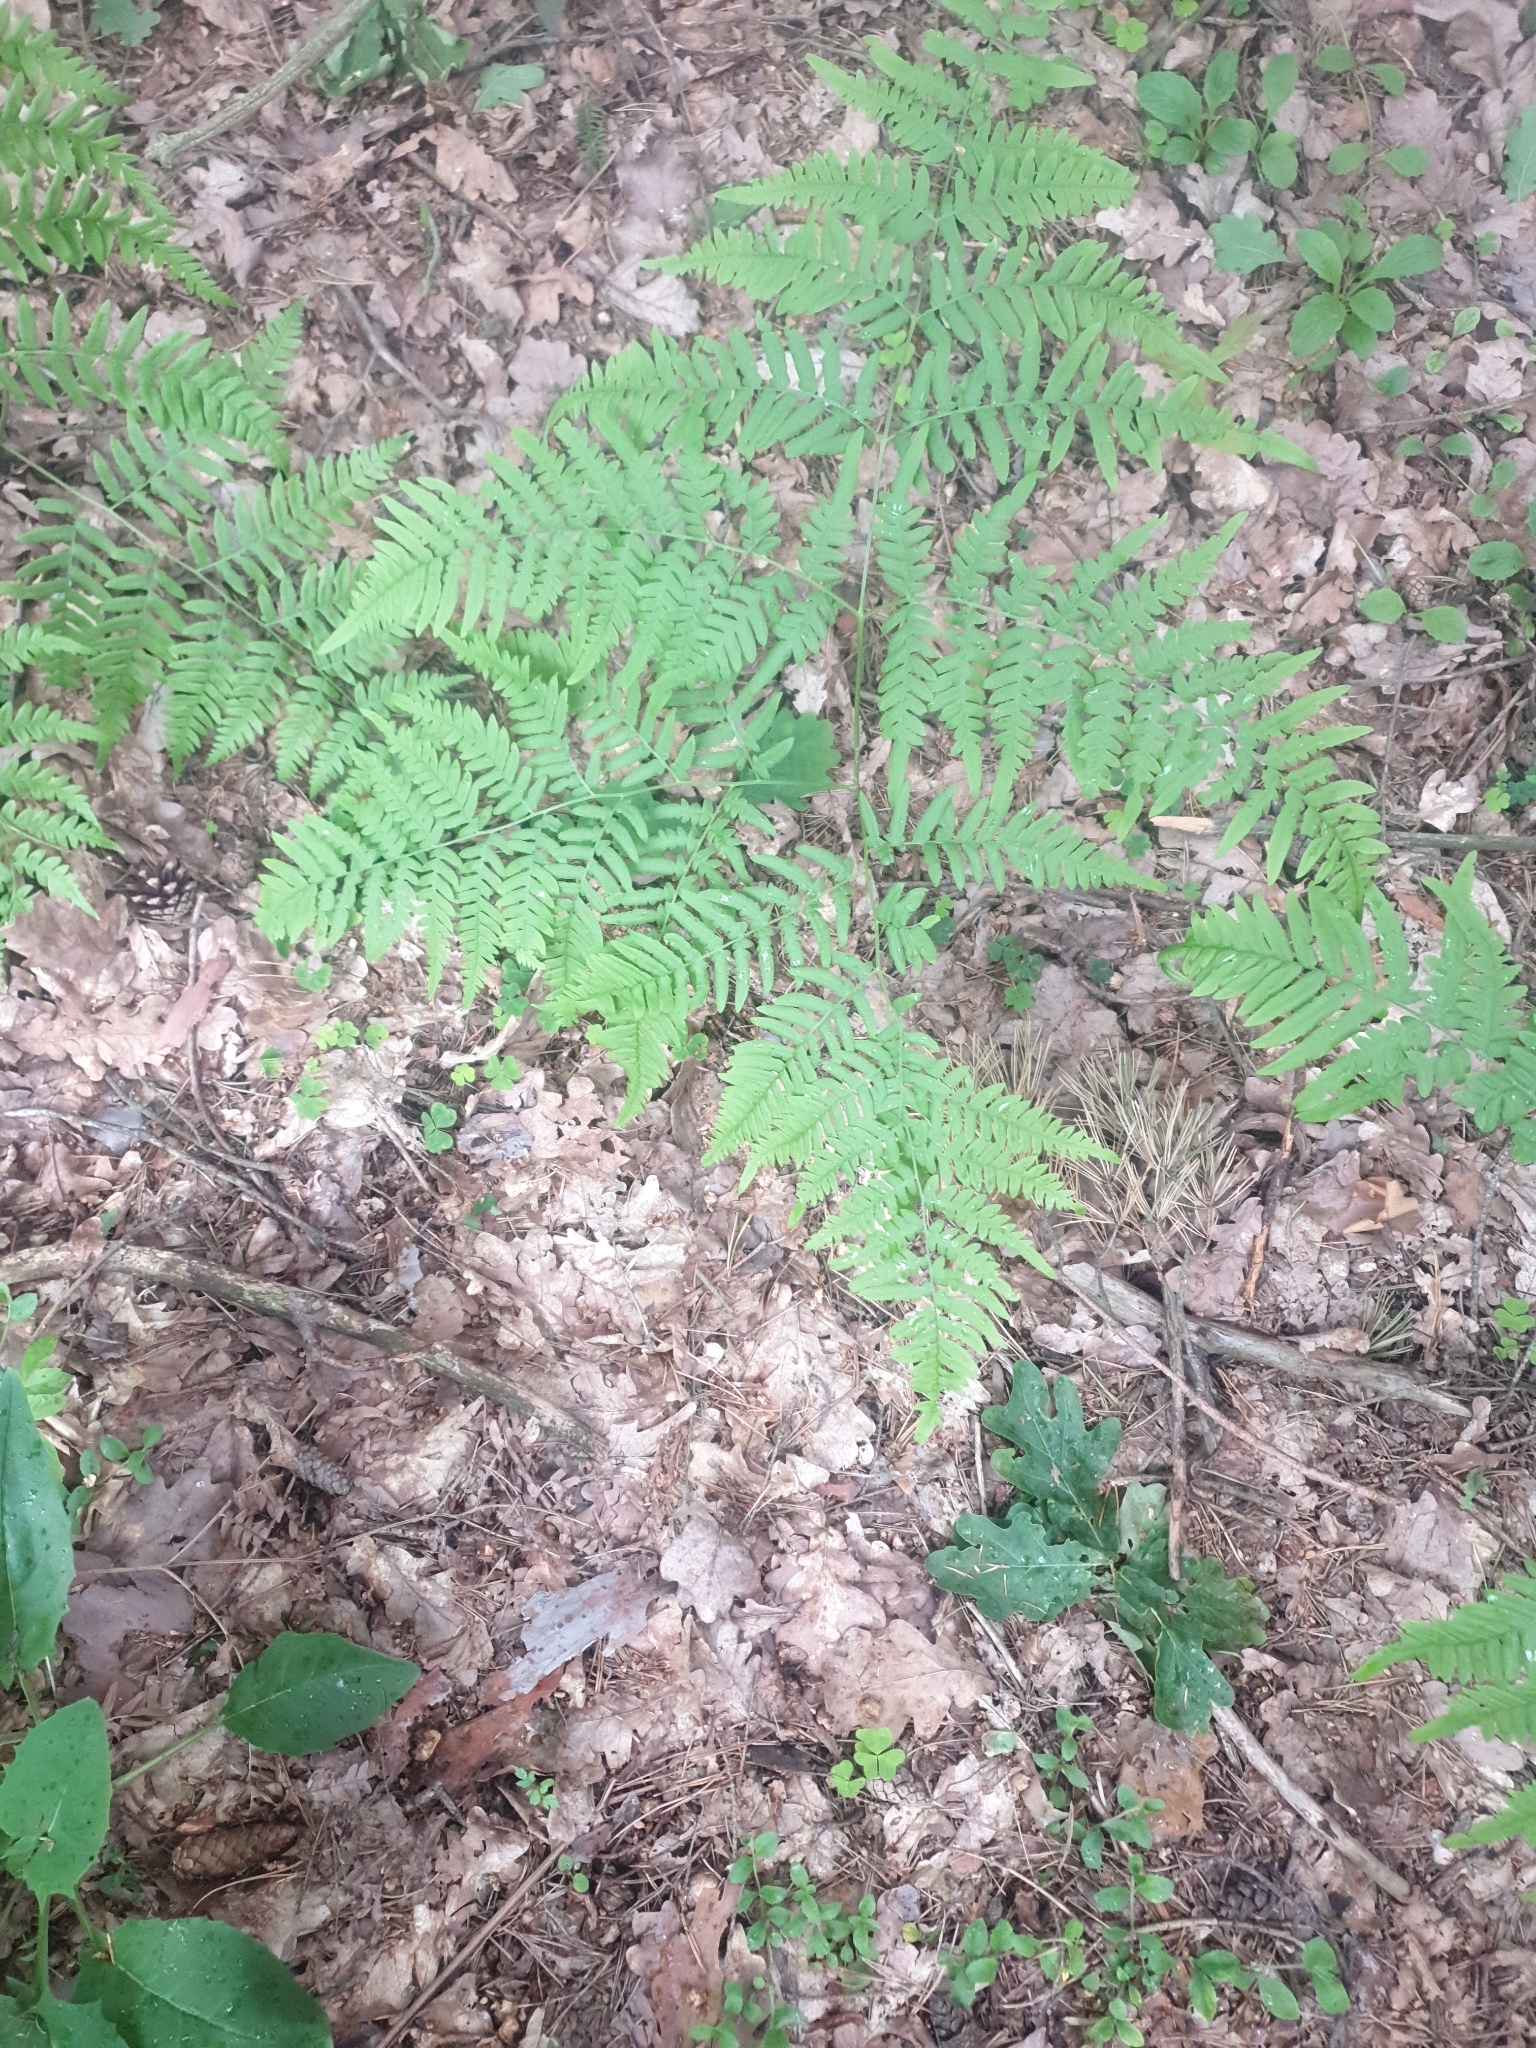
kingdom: Plantae
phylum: Tracheophyta
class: Polypodiopsida
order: Polypodiales
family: Dennstaedtiaceae
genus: Pteridium
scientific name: Pteridium aquilinum
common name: Bracken
